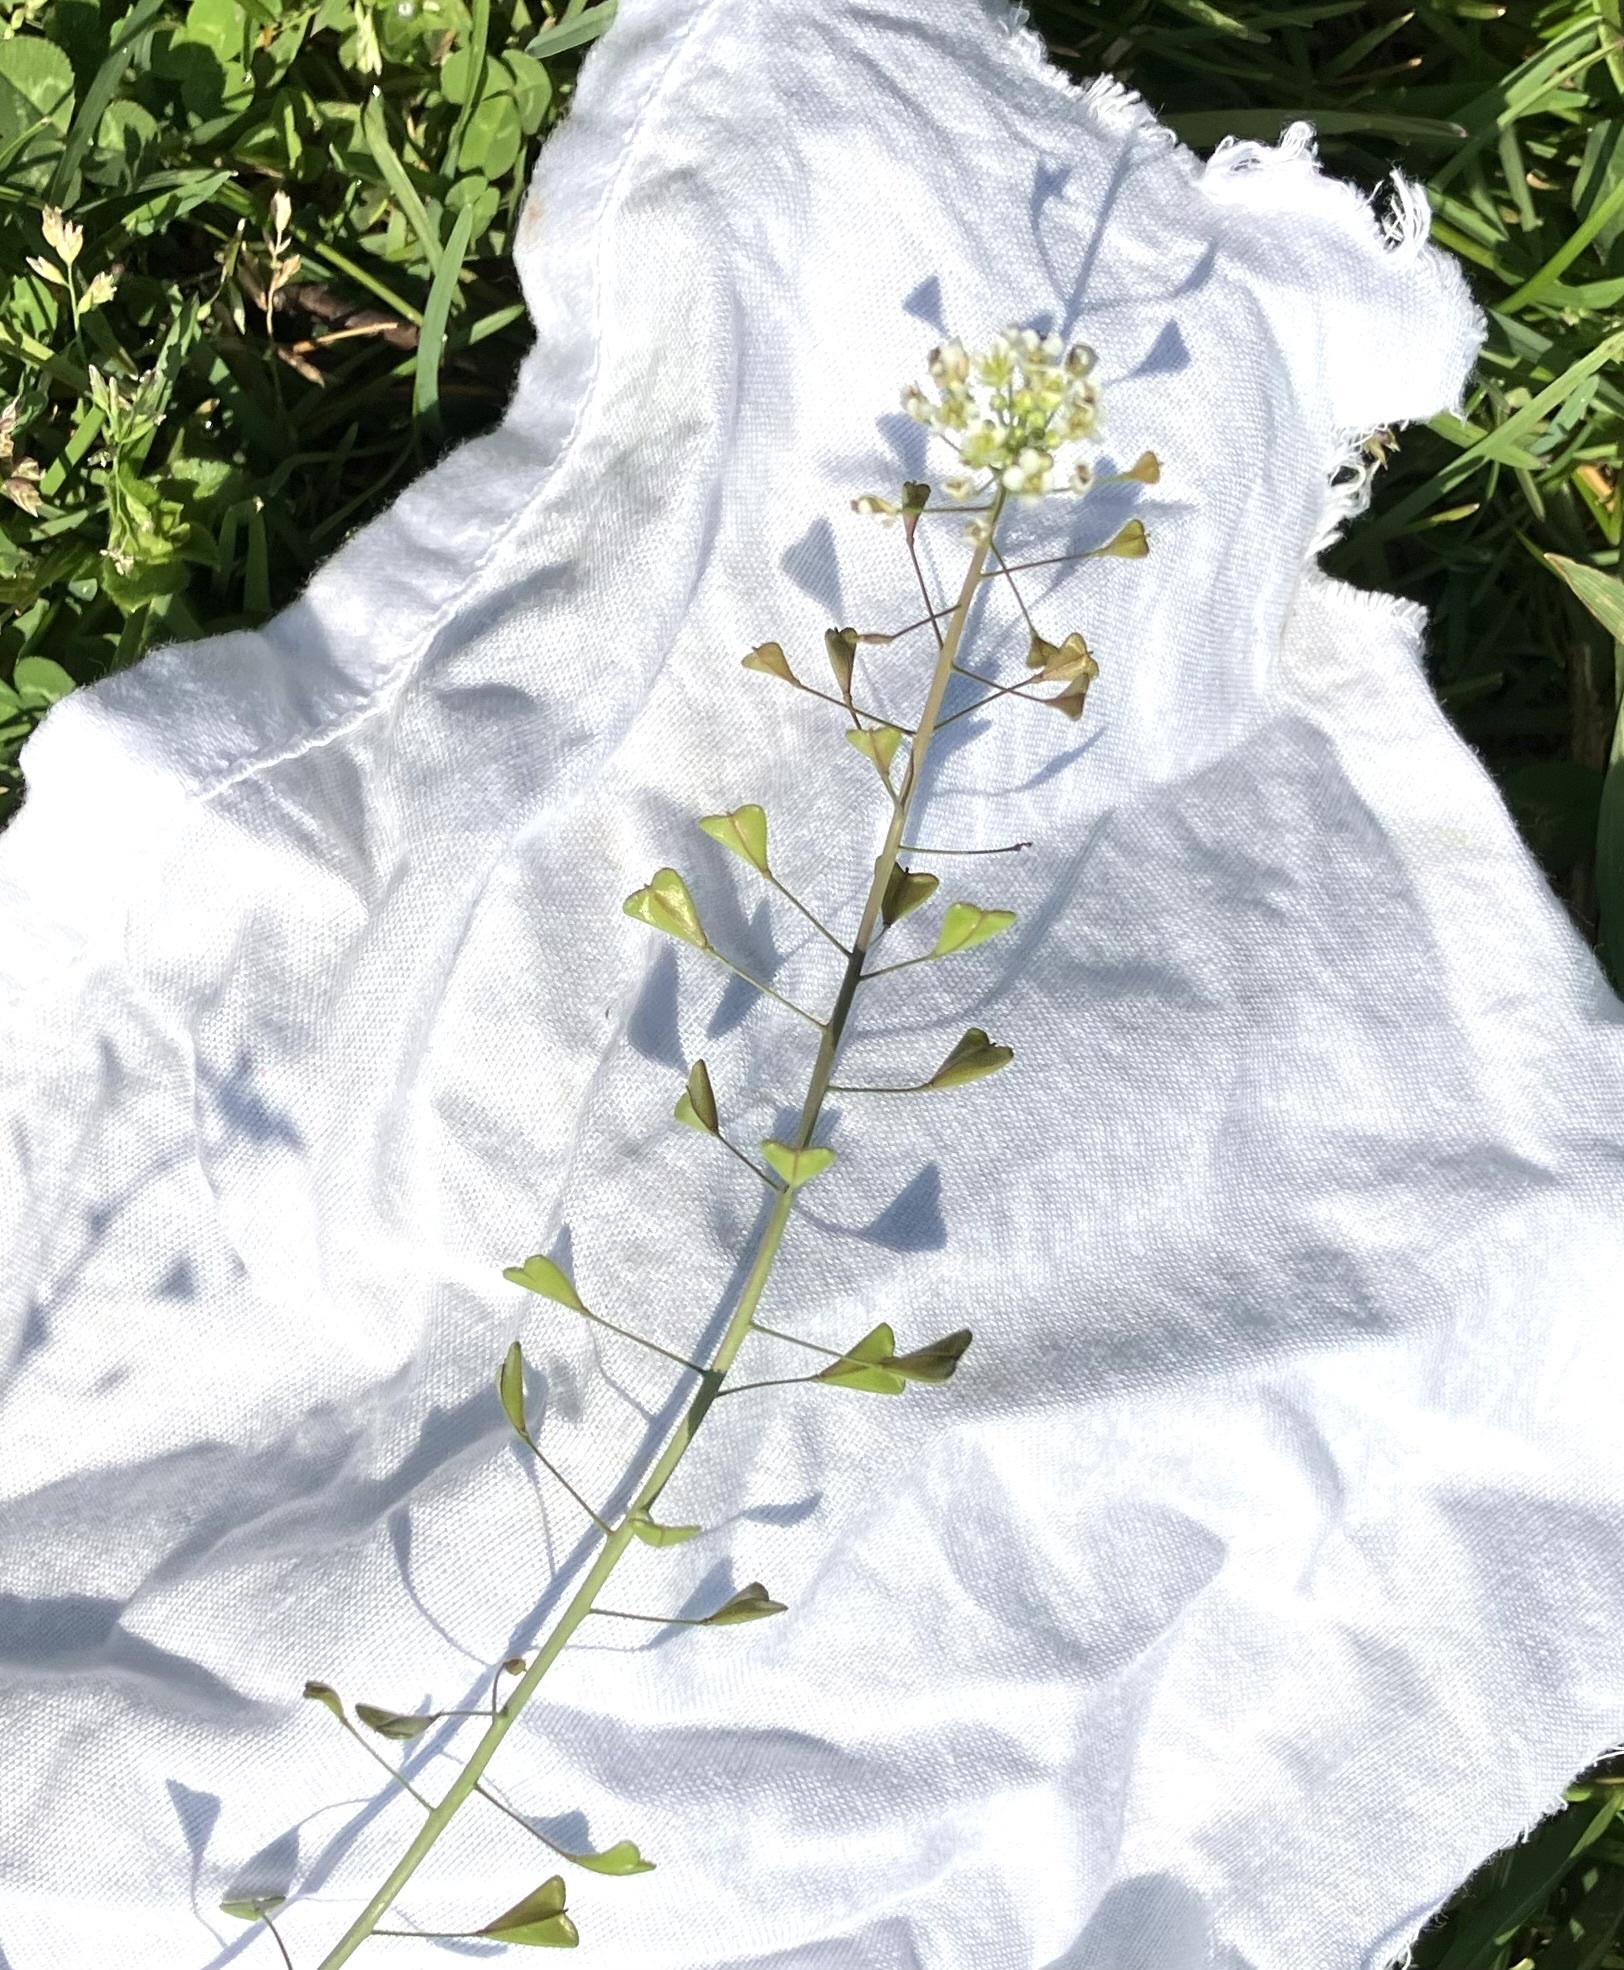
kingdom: Plantae
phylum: Tracheophyta
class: Magnoliopsida
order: Brassicales
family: Brassicaceae
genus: Capsella
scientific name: Capsella bursa-pastoris
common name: Shepherd's purse
